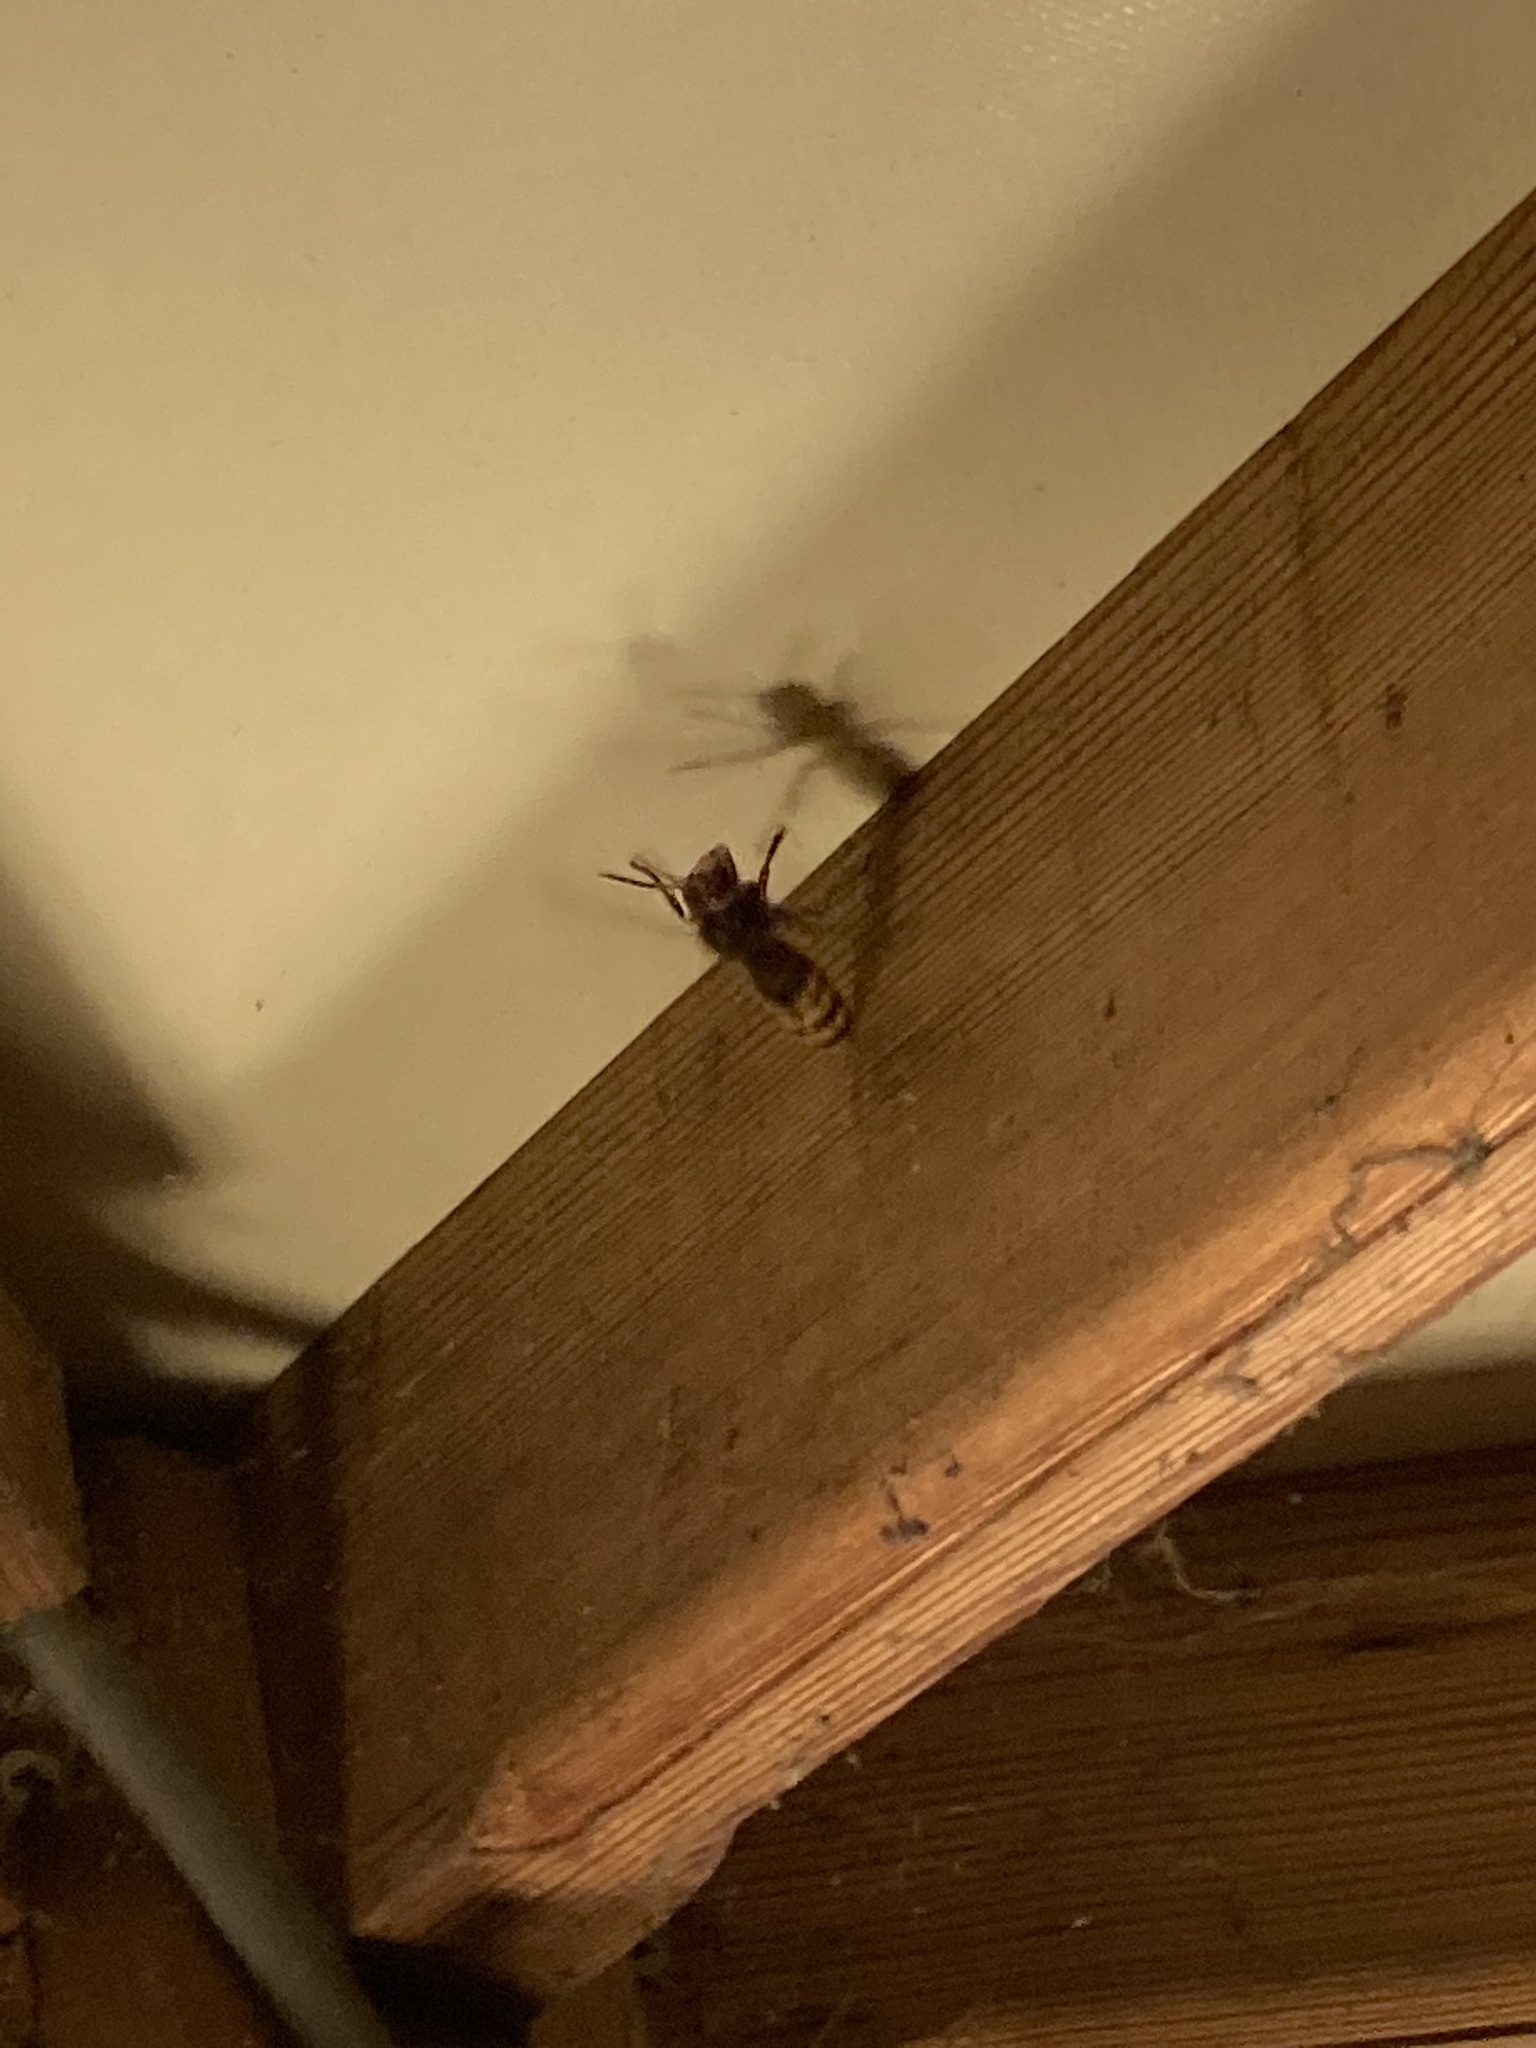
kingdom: Animalia
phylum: Arthropoda
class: Insecta
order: Hymenoptera
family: Vespidae
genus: Vespa
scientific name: Vespa crabro
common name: Hornet
